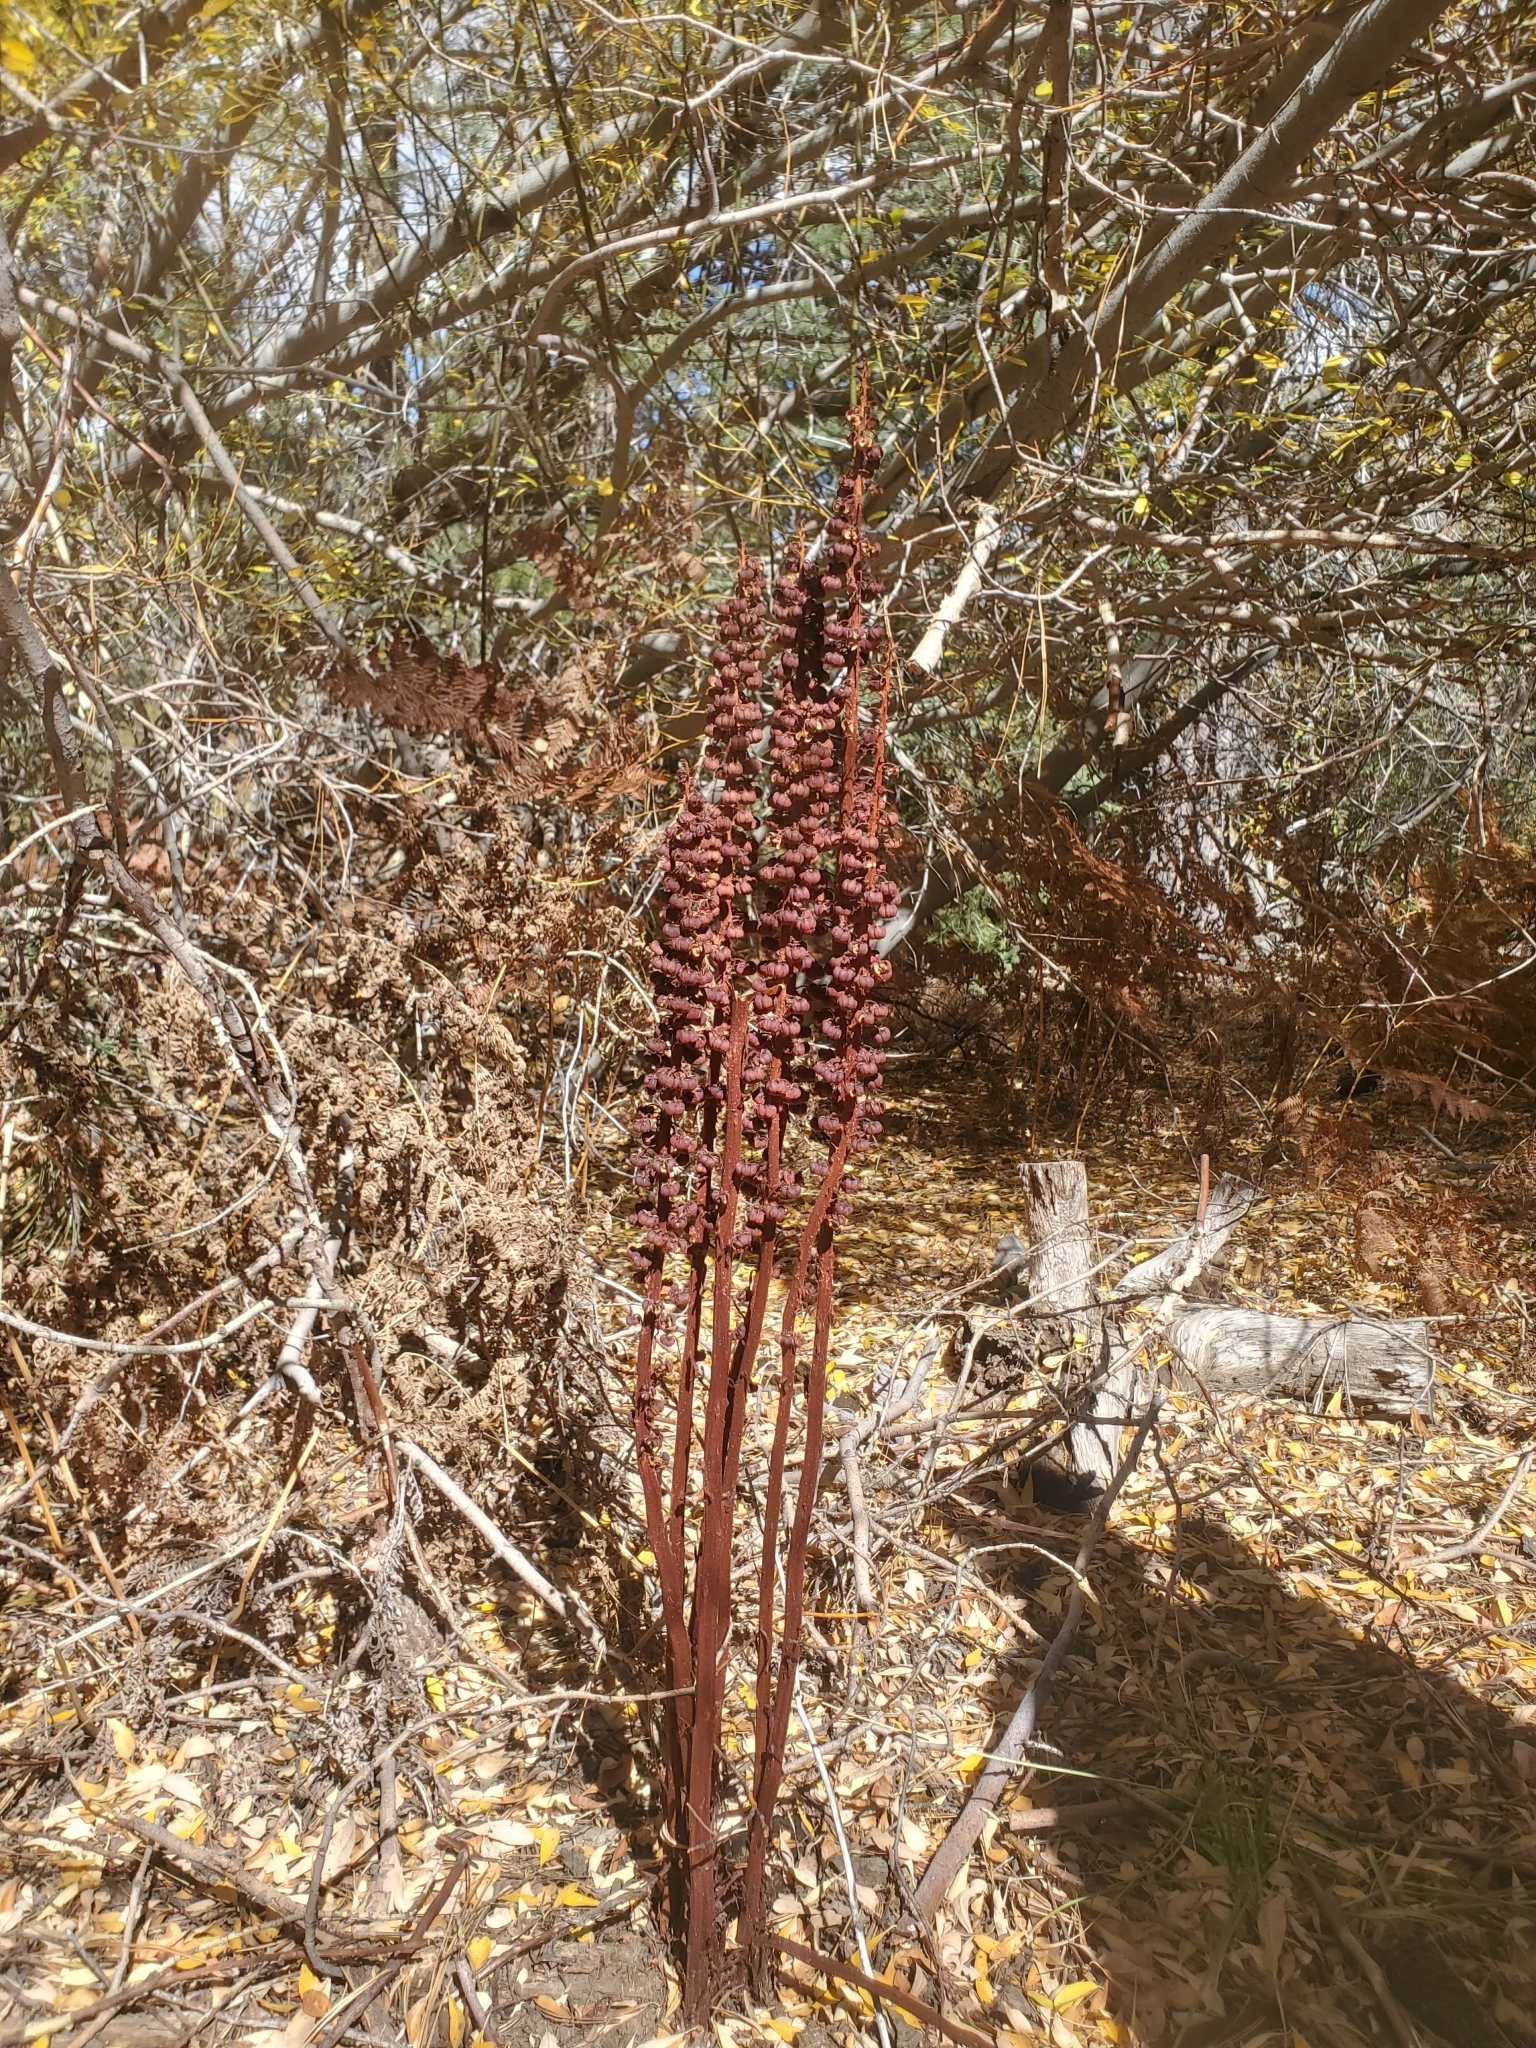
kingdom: Plantae
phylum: Tracheophyta
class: Magnoliopsida
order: Ericales
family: Ericaceae
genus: Pterospora
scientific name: Pterospora andromedea
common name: Giant bird's-nest
